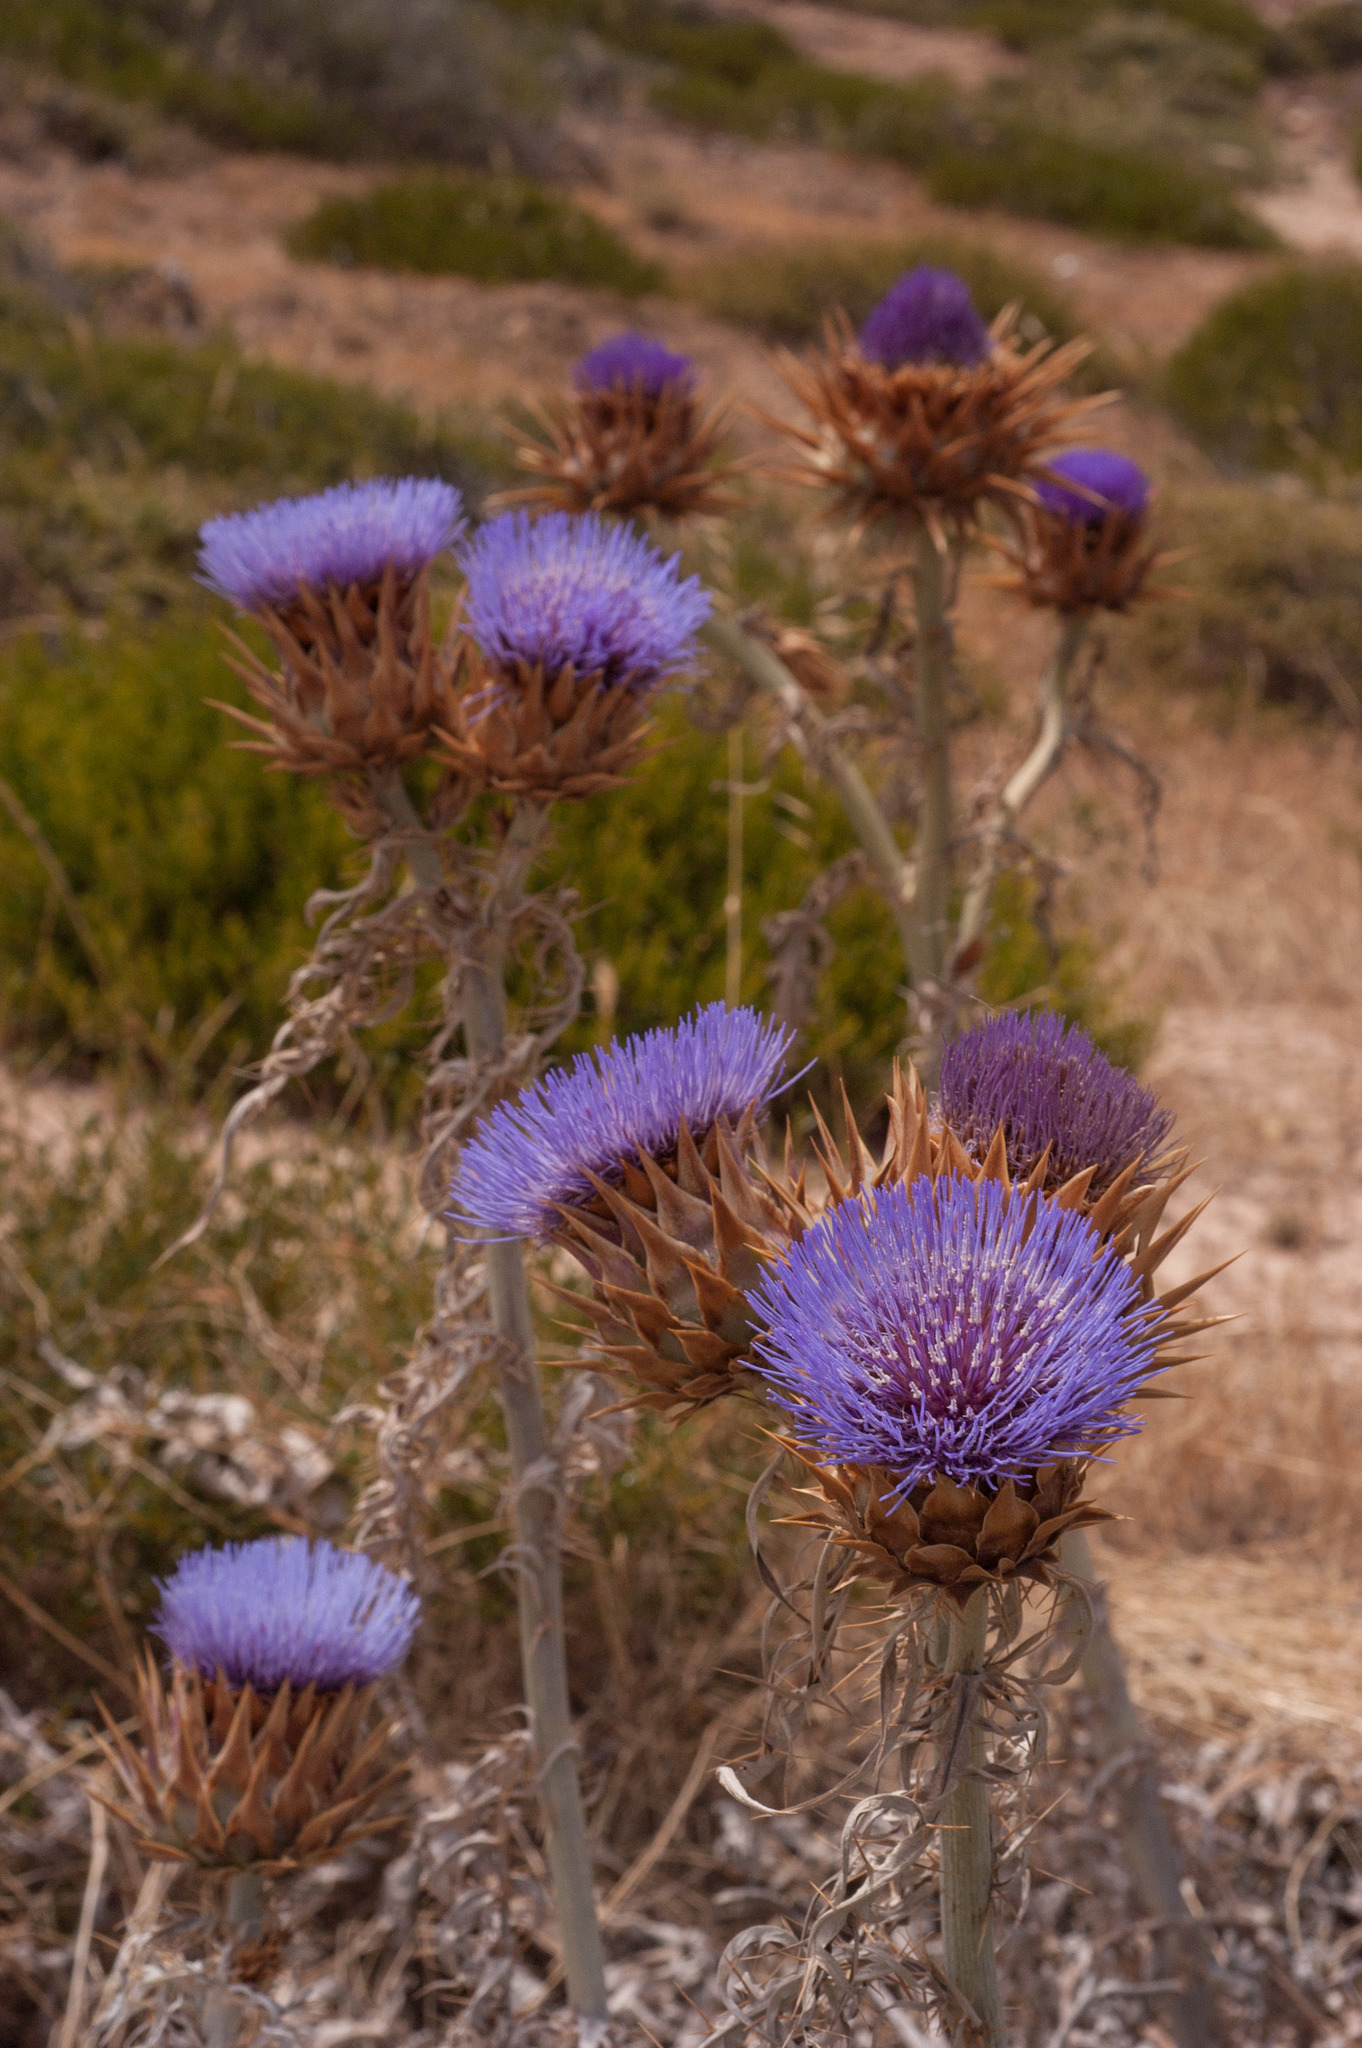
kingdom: Plantae
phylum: Tracheophyta
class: Magnoliopsida
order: Asterales
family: Asteraceae
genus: Cynara
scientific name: Cynara cardunculus
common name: Globe artichoke
